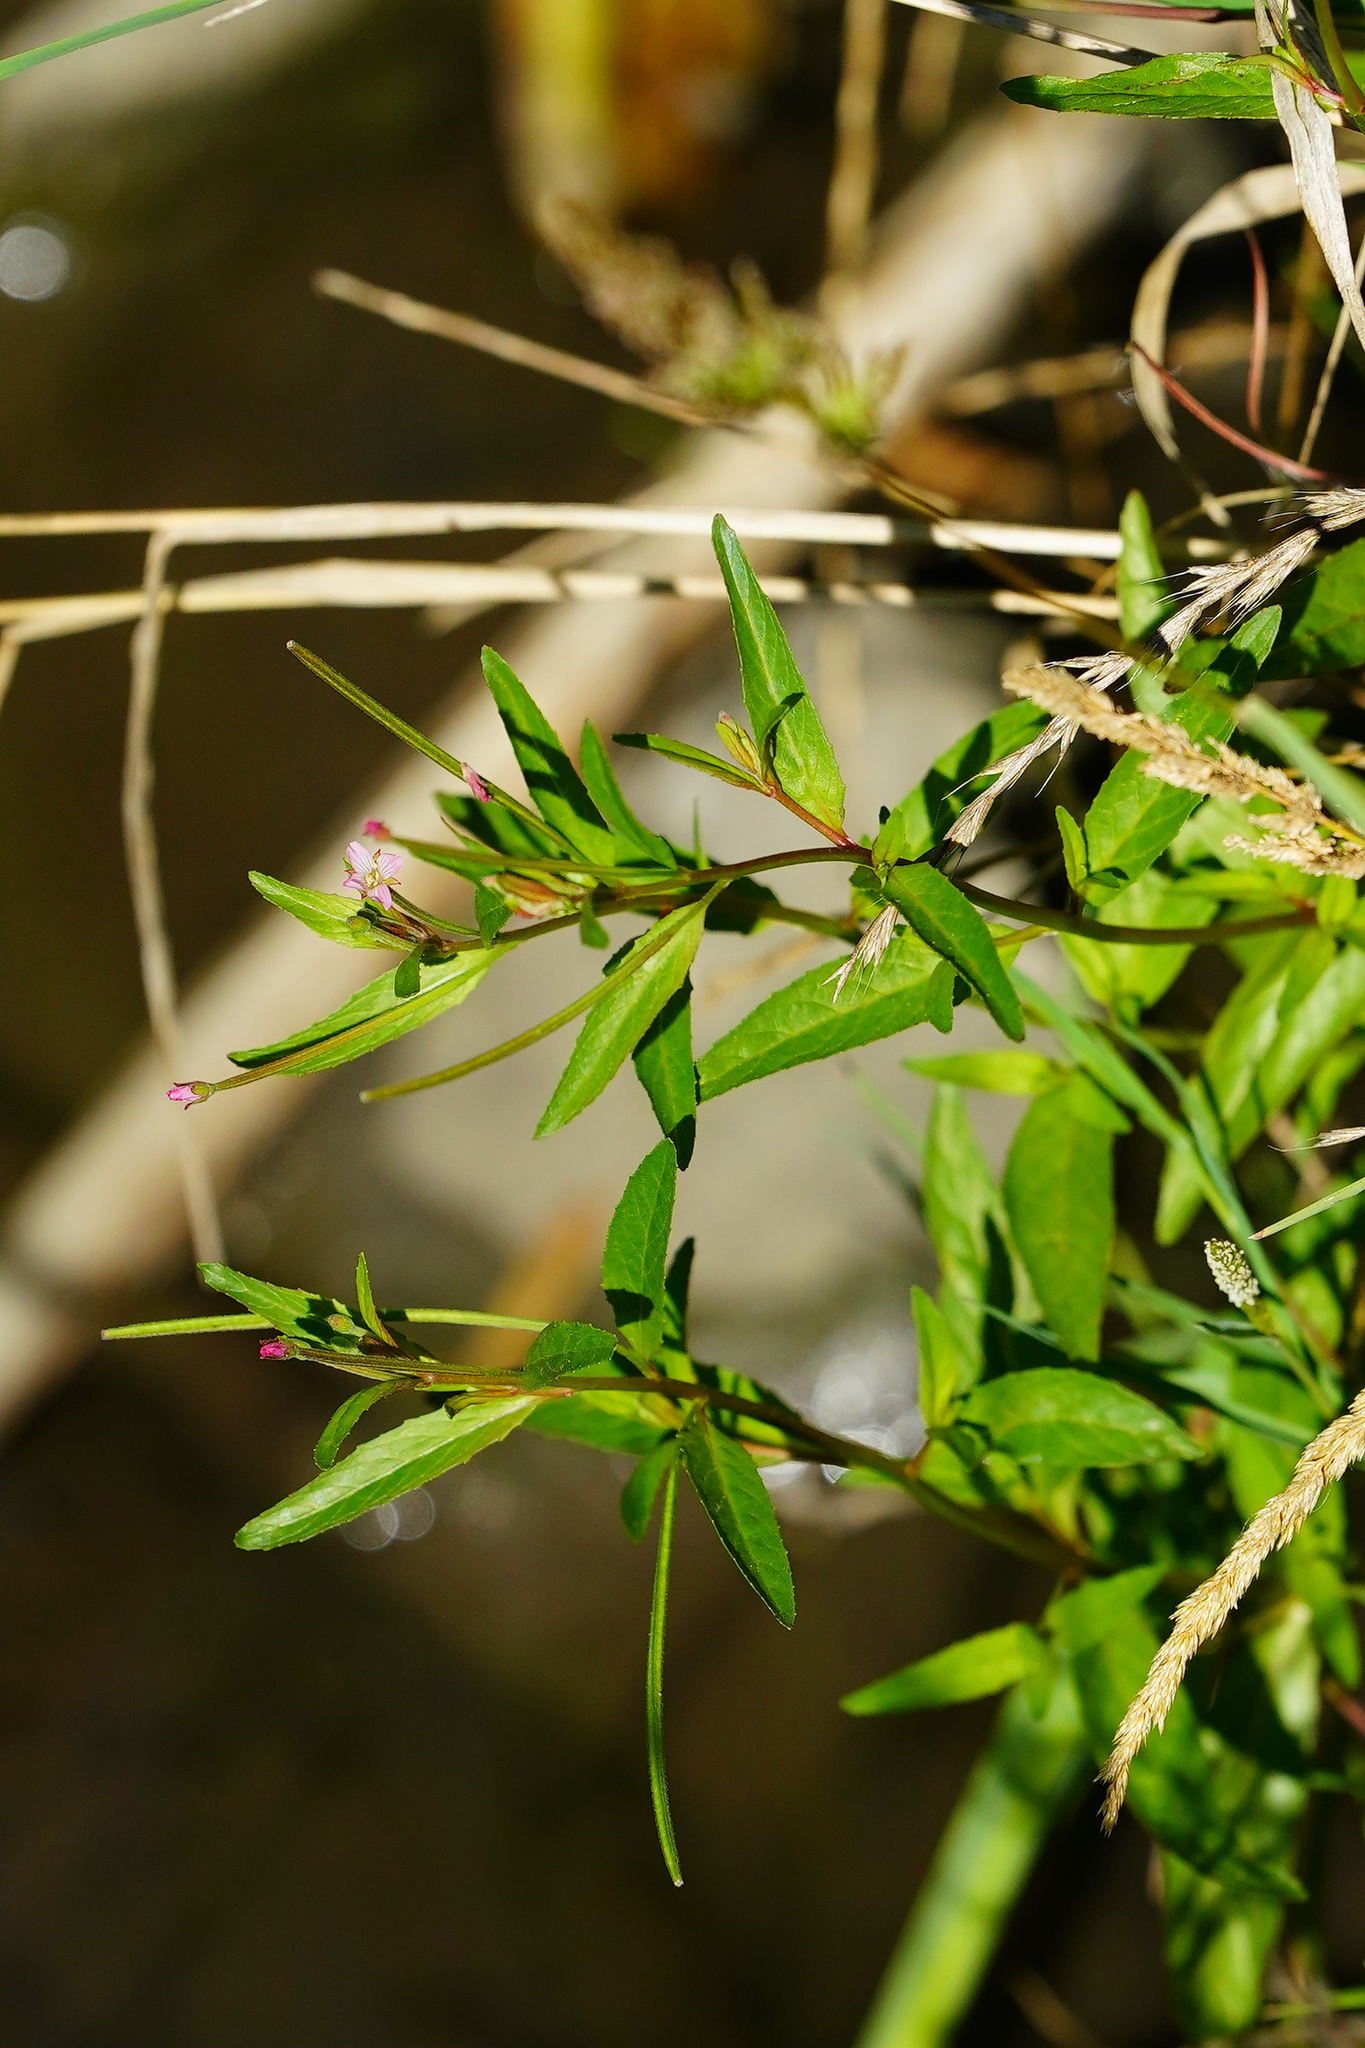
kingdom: Plantae
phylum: Tracheophyta
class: Magnoliopsida
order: Myrtales
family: Onagraceae
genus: Epilobium
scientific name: Epilobium ciliatum
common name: American willowherb
